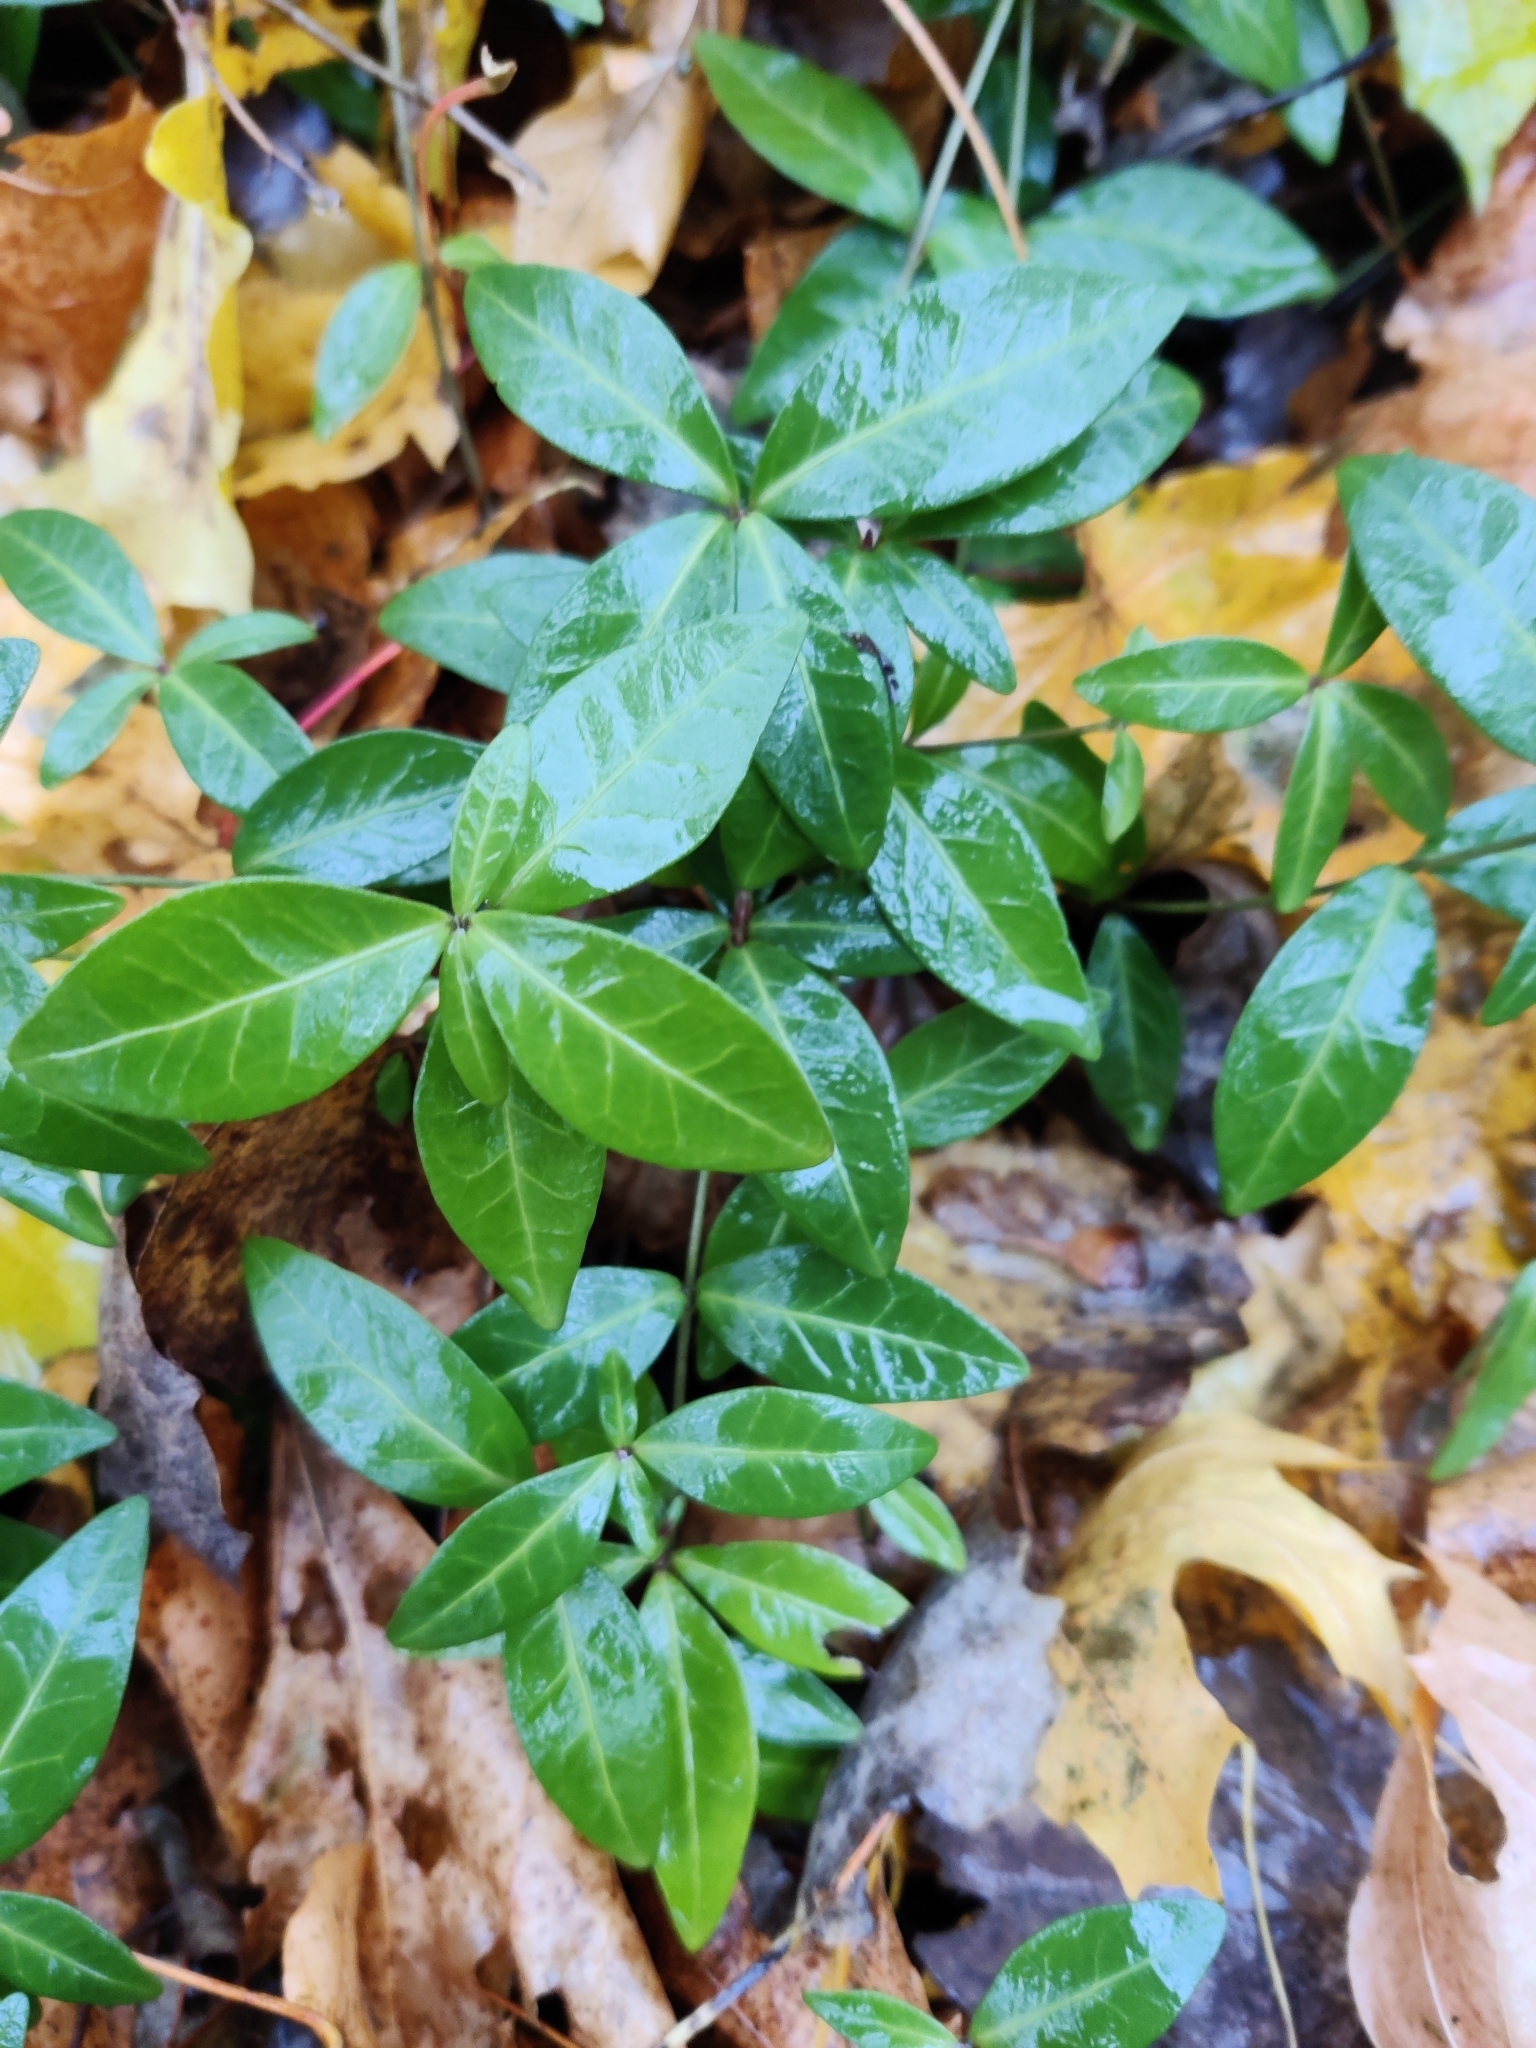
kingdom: Plantae
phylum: Tracheophyta
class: Magnoliopsida
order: Gentianales
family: Apocynaceae
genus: Vinca
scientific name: Vinca minor
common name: Lesser periwinkle
